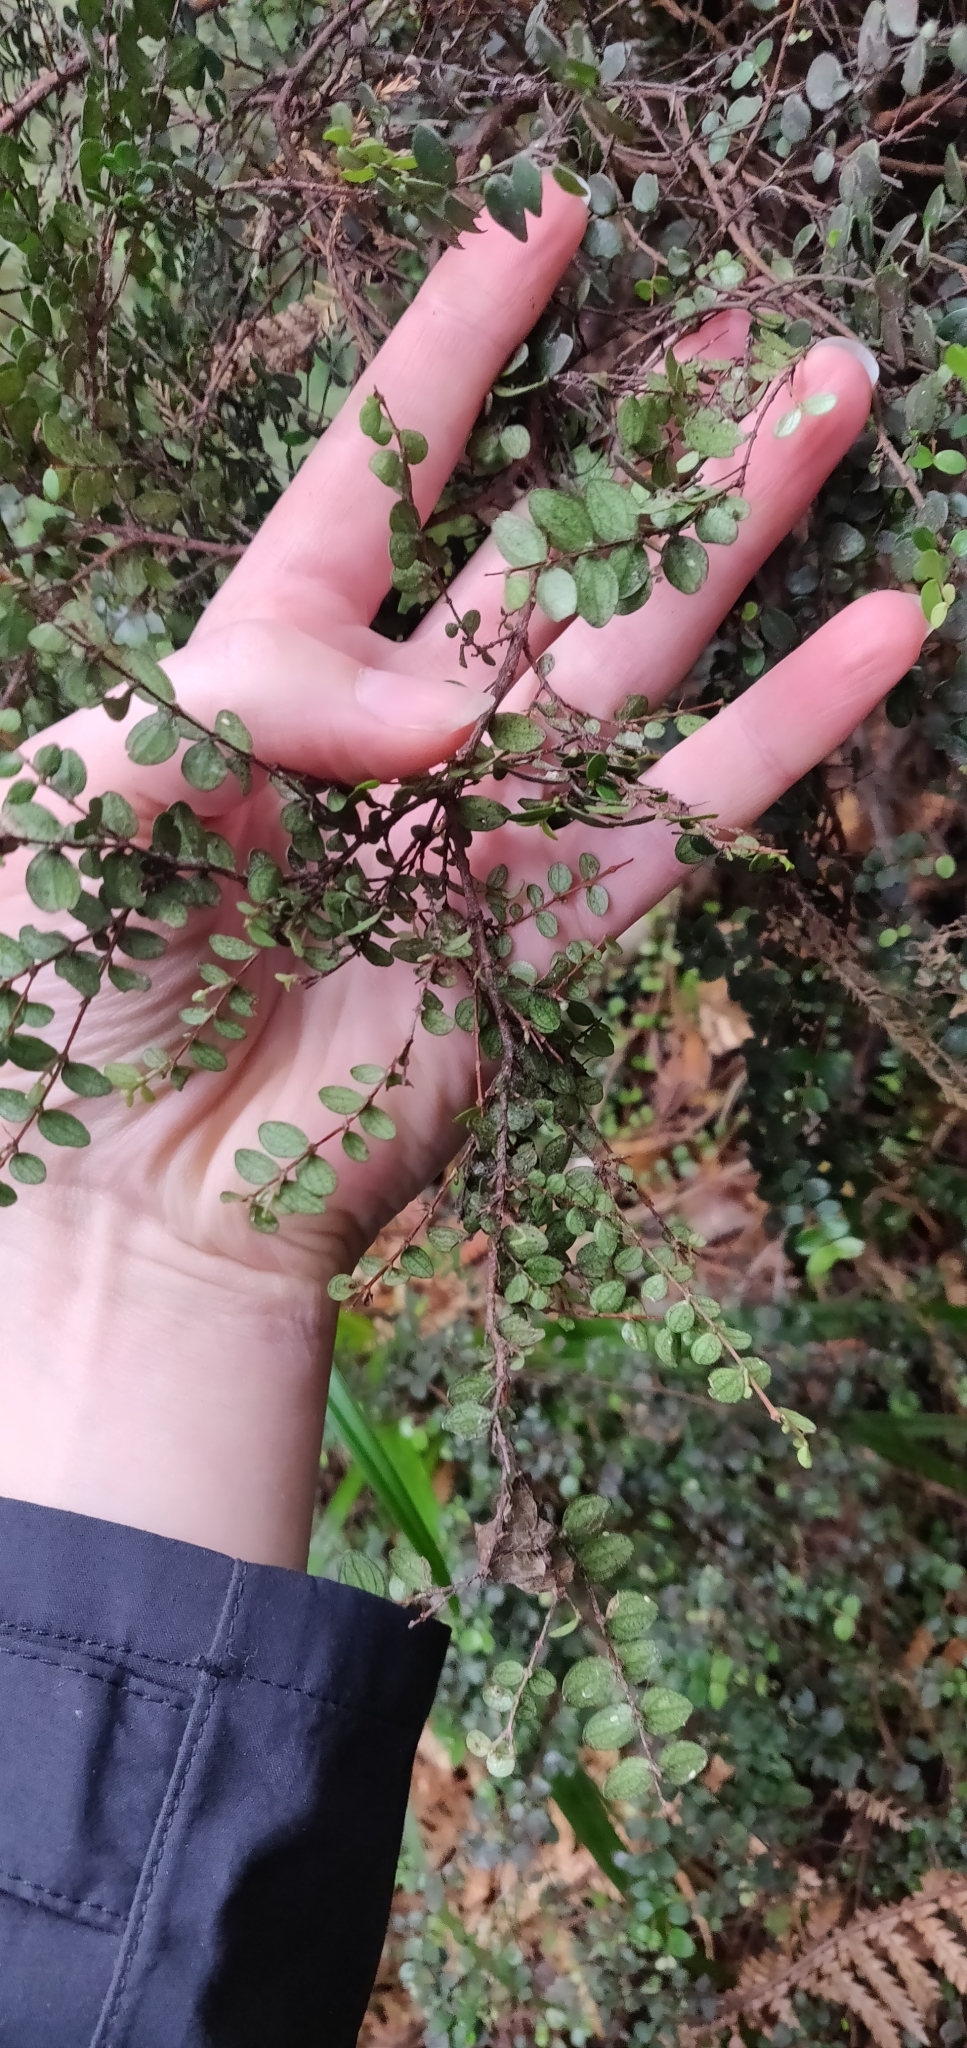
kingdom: Plantae
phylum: Tracheophyta
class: Magnoliopsida
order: Myrtales
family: Myrtaceae
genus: Metrosideros
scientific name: Metrosideros perforata
